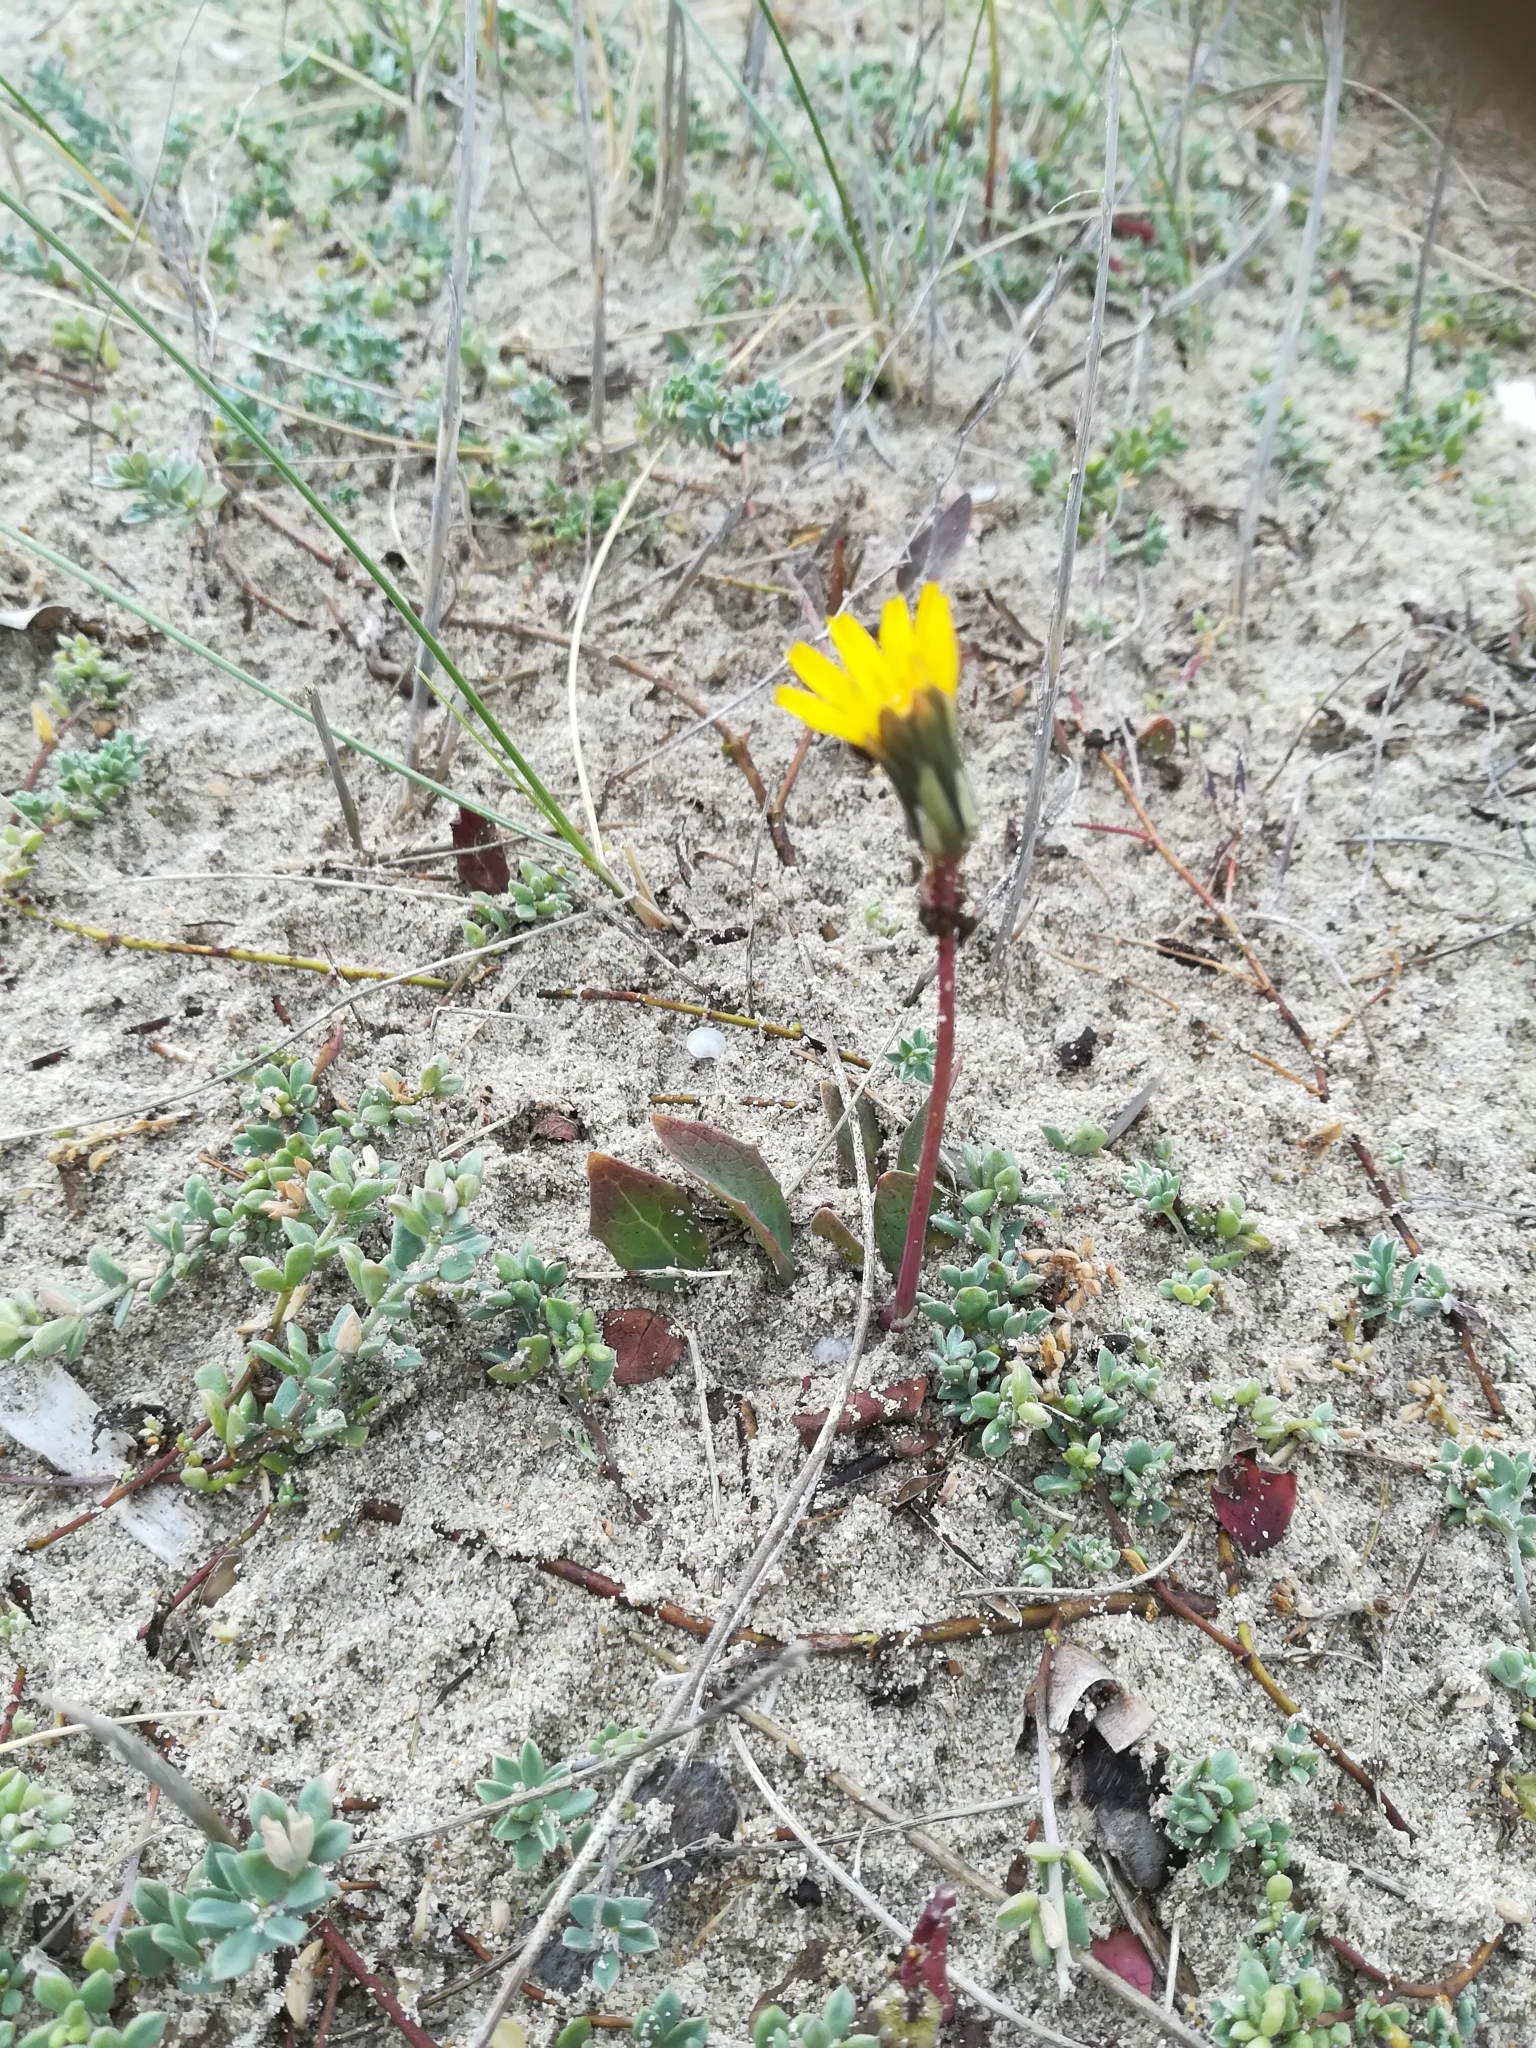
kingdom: Plantae
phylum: Tracheophyta
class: Magnoliopsida
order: Asterales
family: Asteraceae
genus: Aetheorhiza
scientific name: Aetheorhiza bulbosa
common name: Tuberous hawk's-beard
